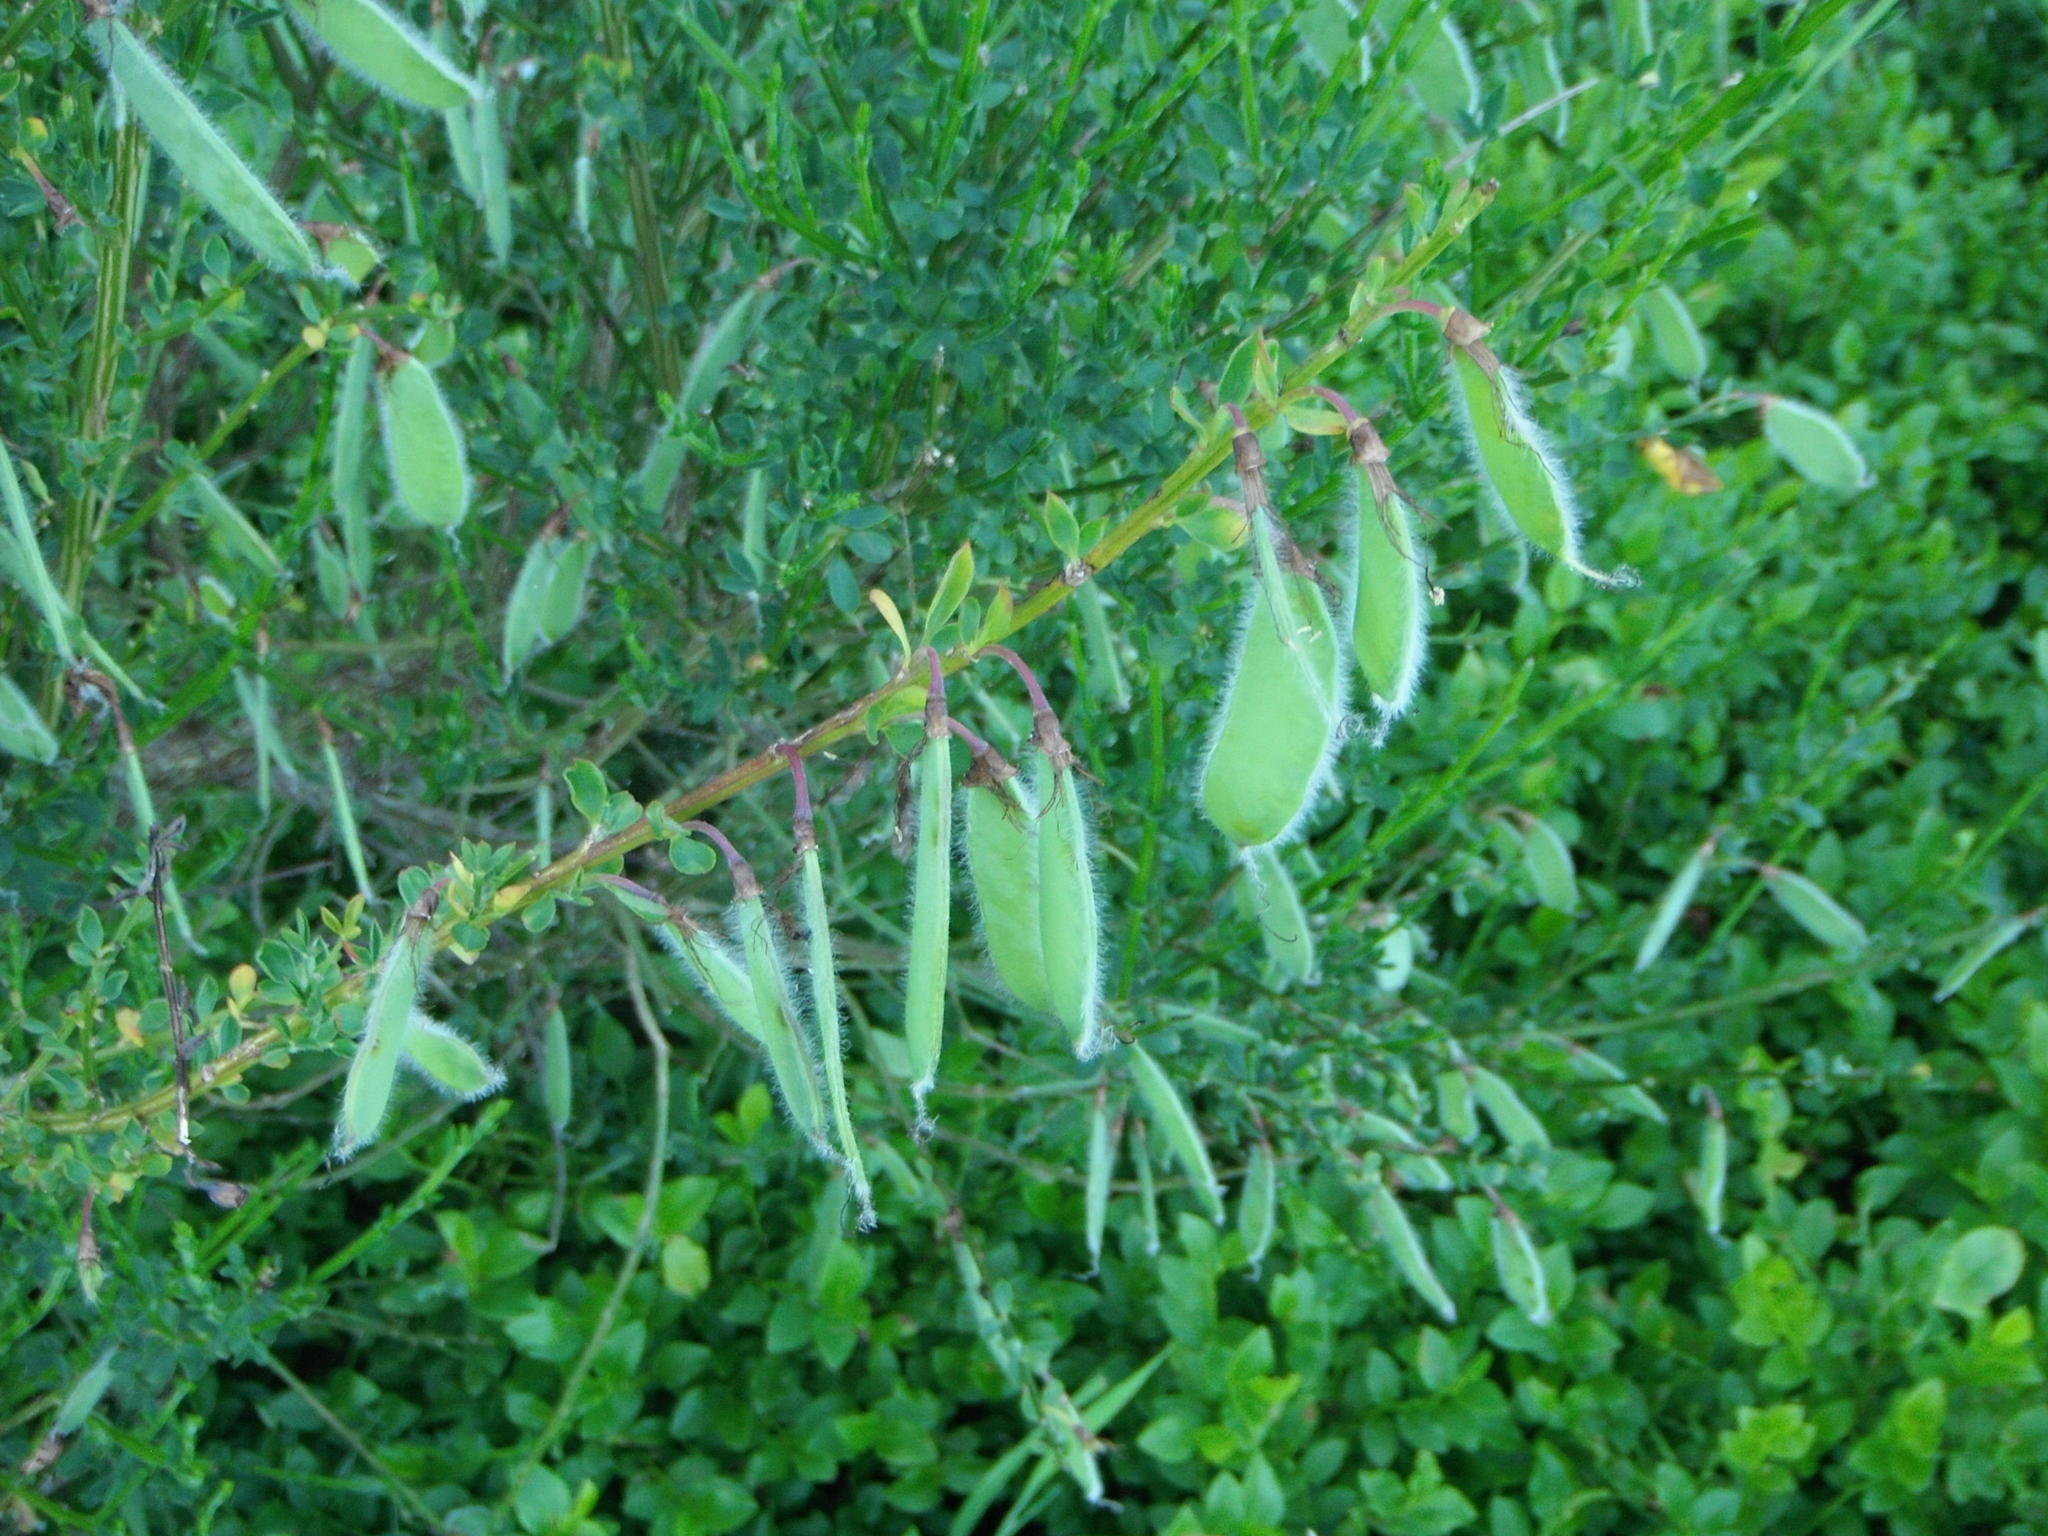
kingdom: Plantae
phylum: Tracheophyta
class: Magnoliopsida
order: Fabales
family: Fabaceae
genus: Cytisus
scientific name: Cytisus scoparius
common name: Scotch broom
